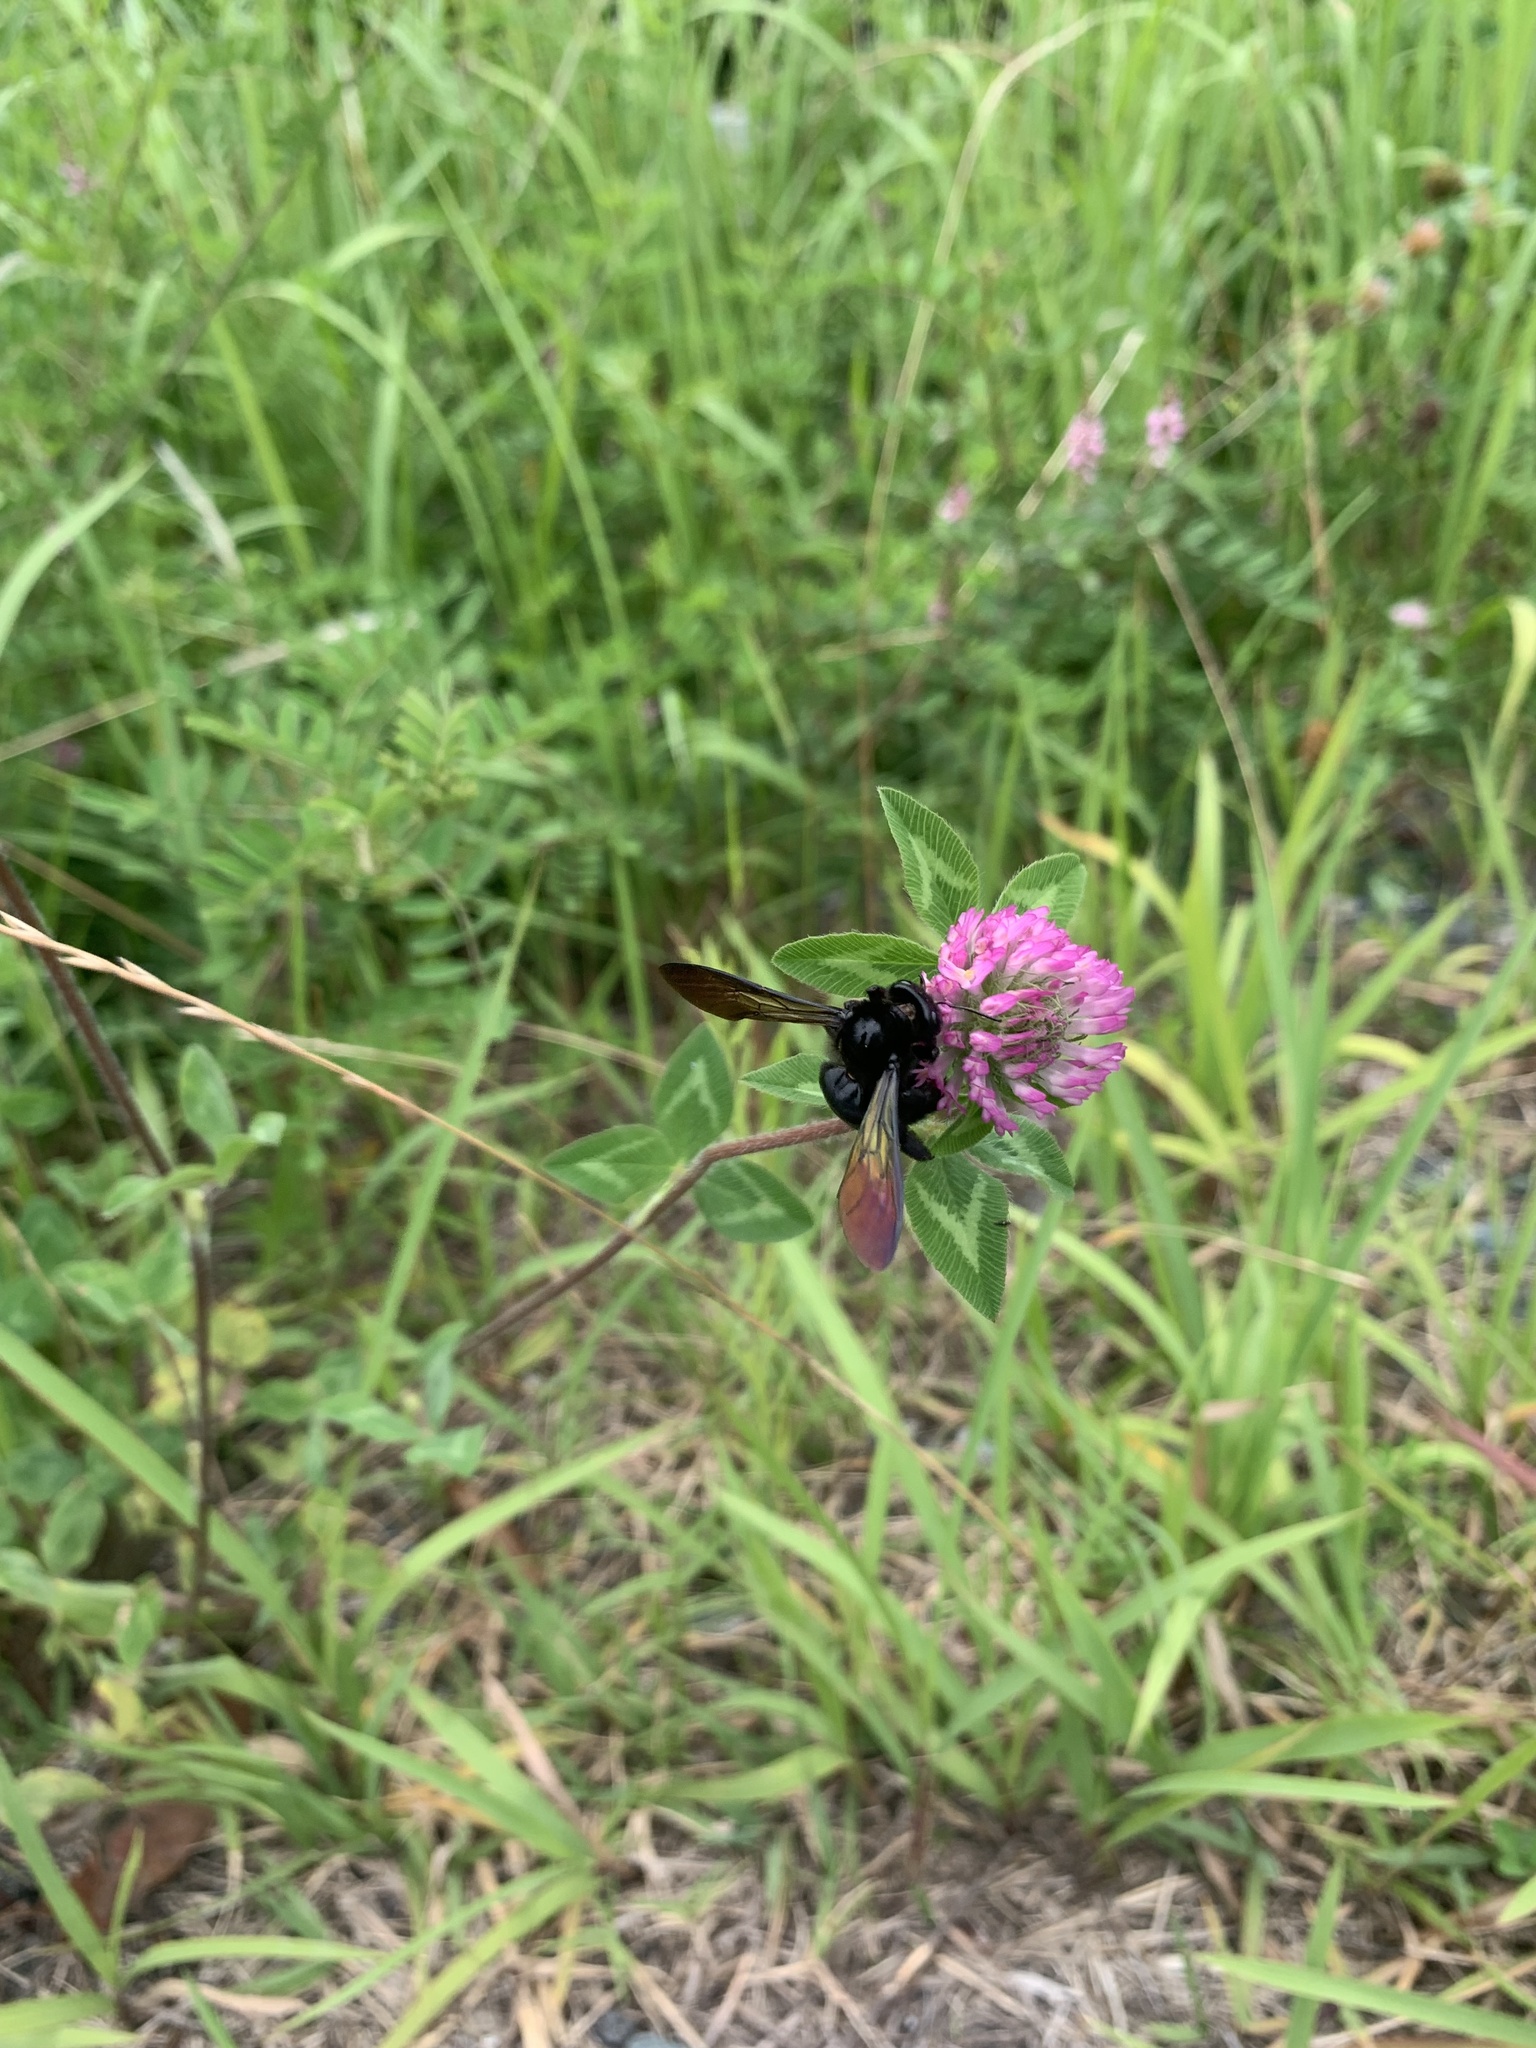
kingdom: Animalia
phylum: Arthropoda
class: Insecta
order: Hymenoptera
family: Apidae
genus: Xylocopa
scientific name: Xylocopa tranquebarorum
